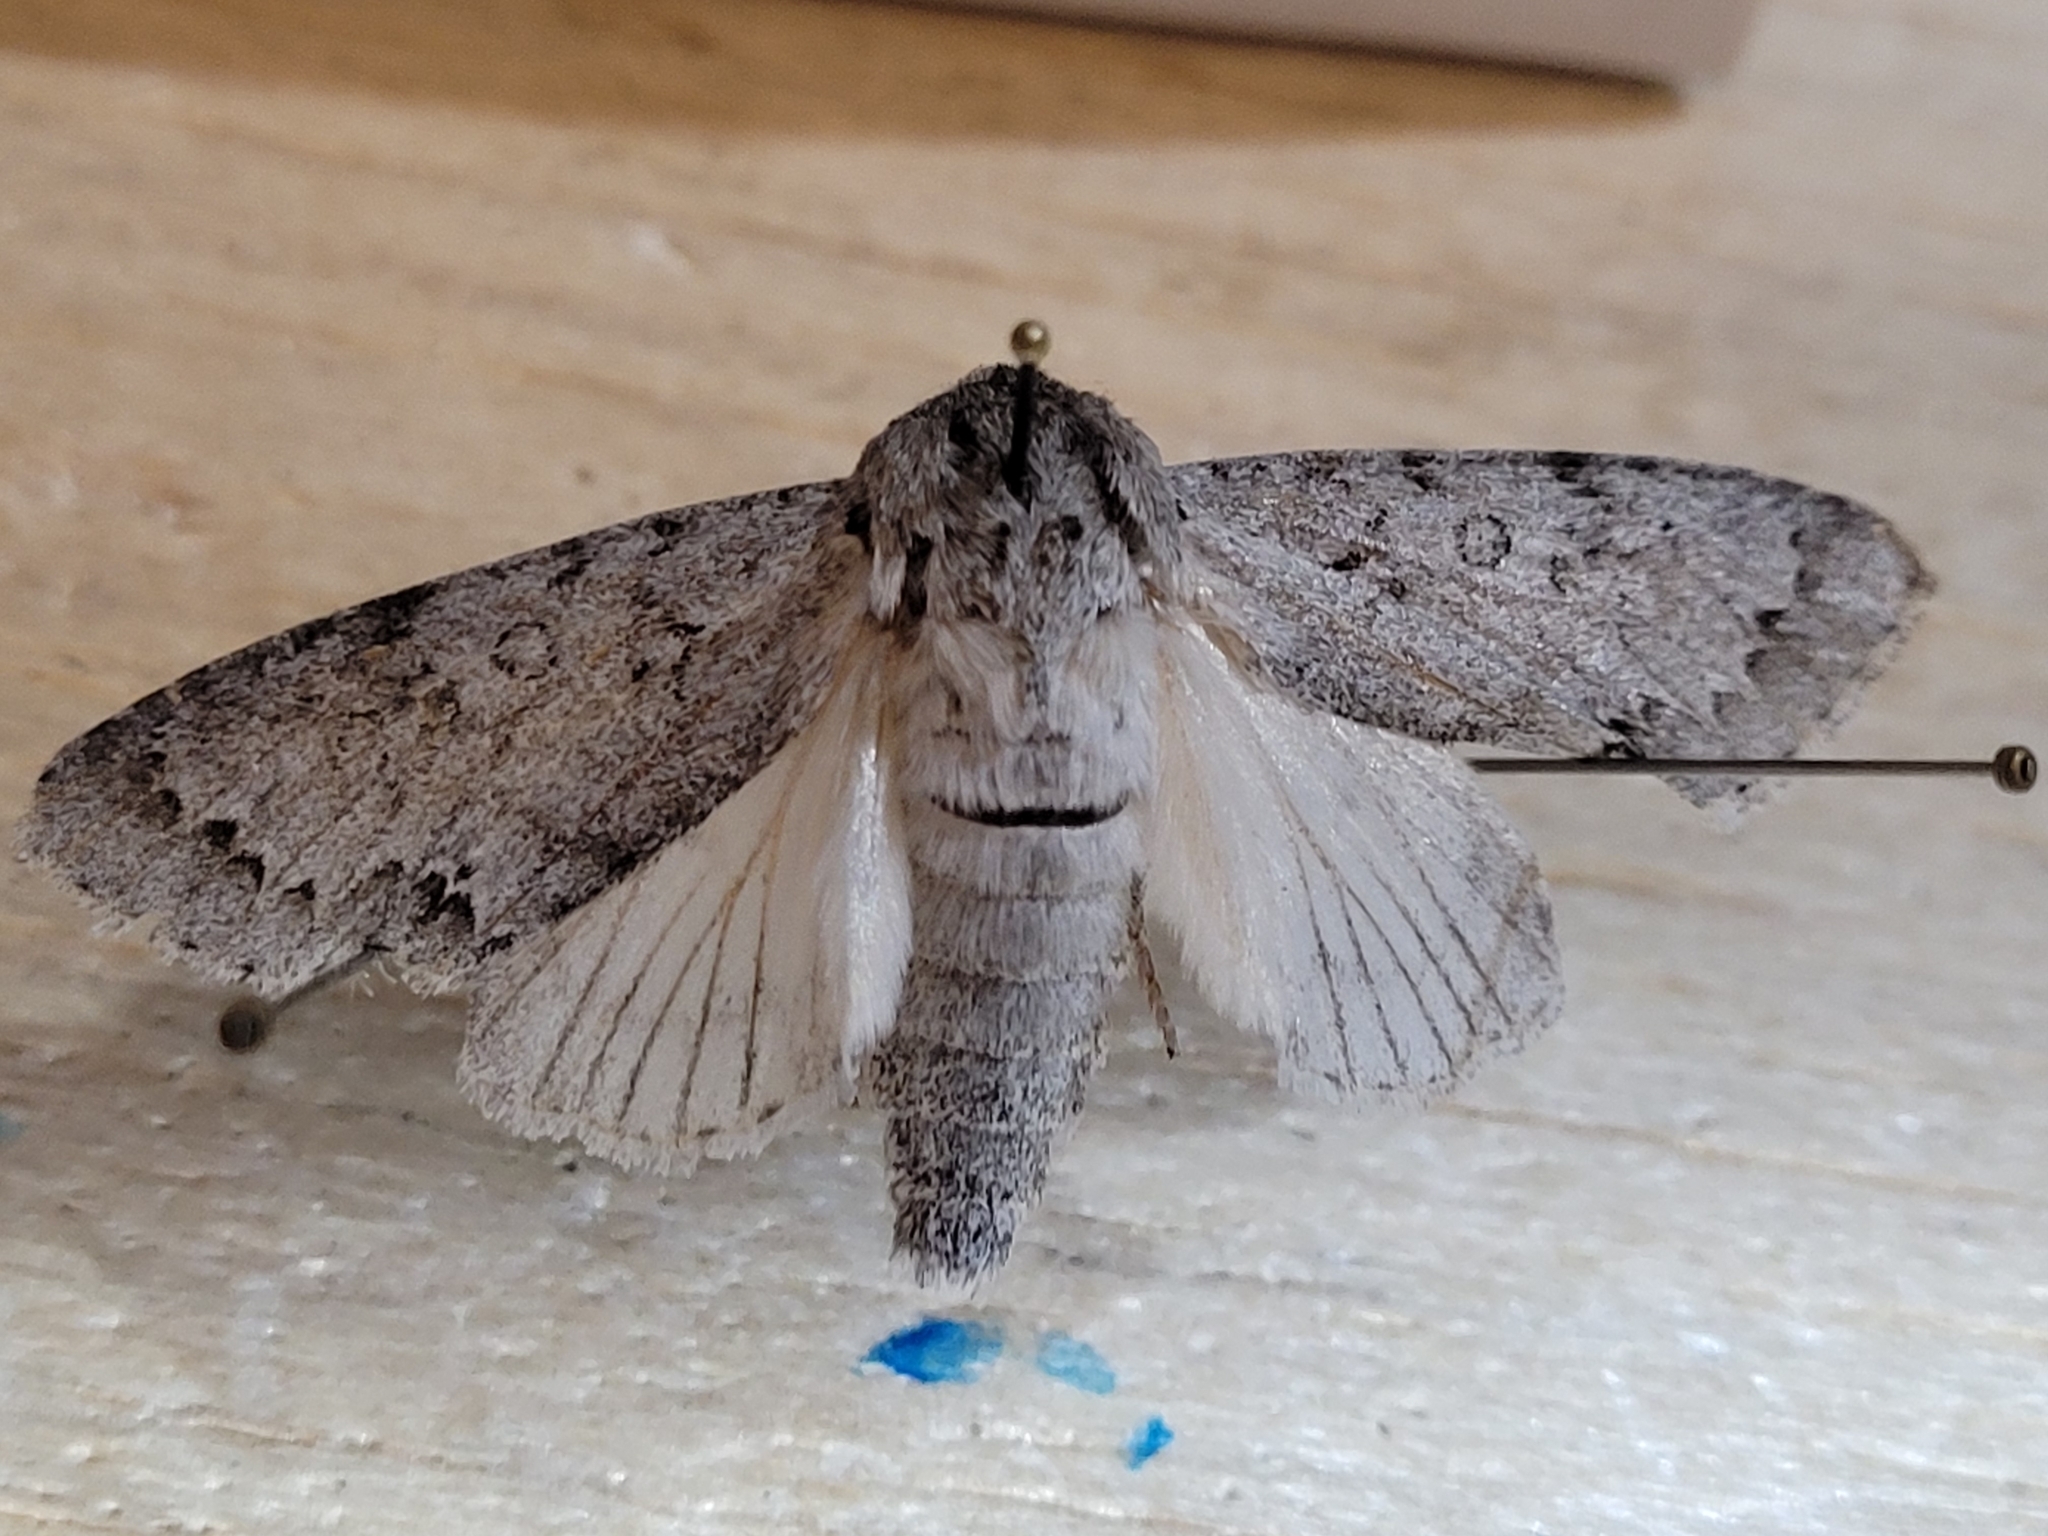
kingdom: Animalia
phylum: Arthropoda
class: Insecta
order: Lepidoptera
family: Noctuidae
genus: Acronicta
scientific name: Acronicta insita
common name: Large gray dagger
